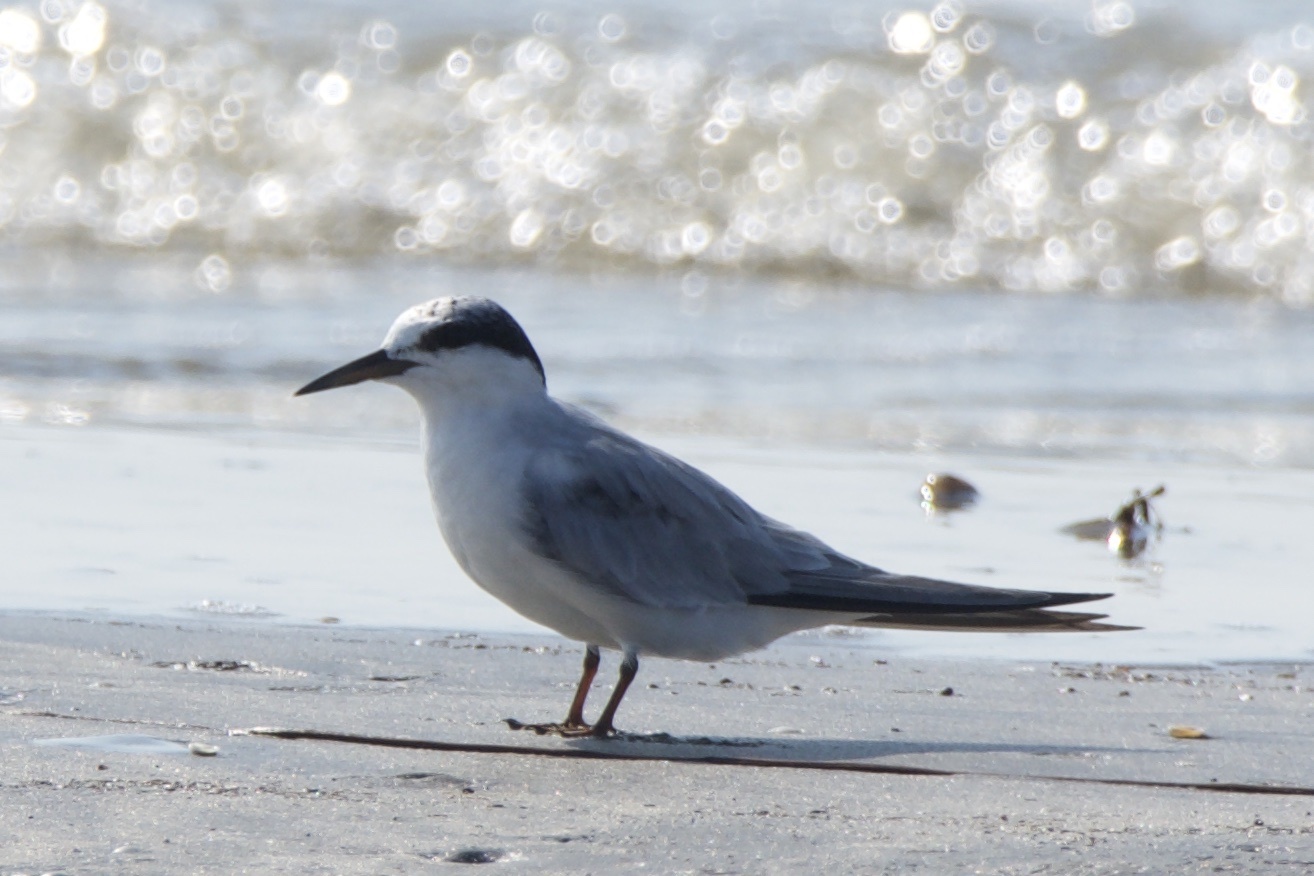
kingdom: Animalia
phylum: Chordata
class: Aves
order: Charadriiformes
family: Laridae
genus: Sterna
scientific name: Sterna forsteri
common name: Forster's tern
